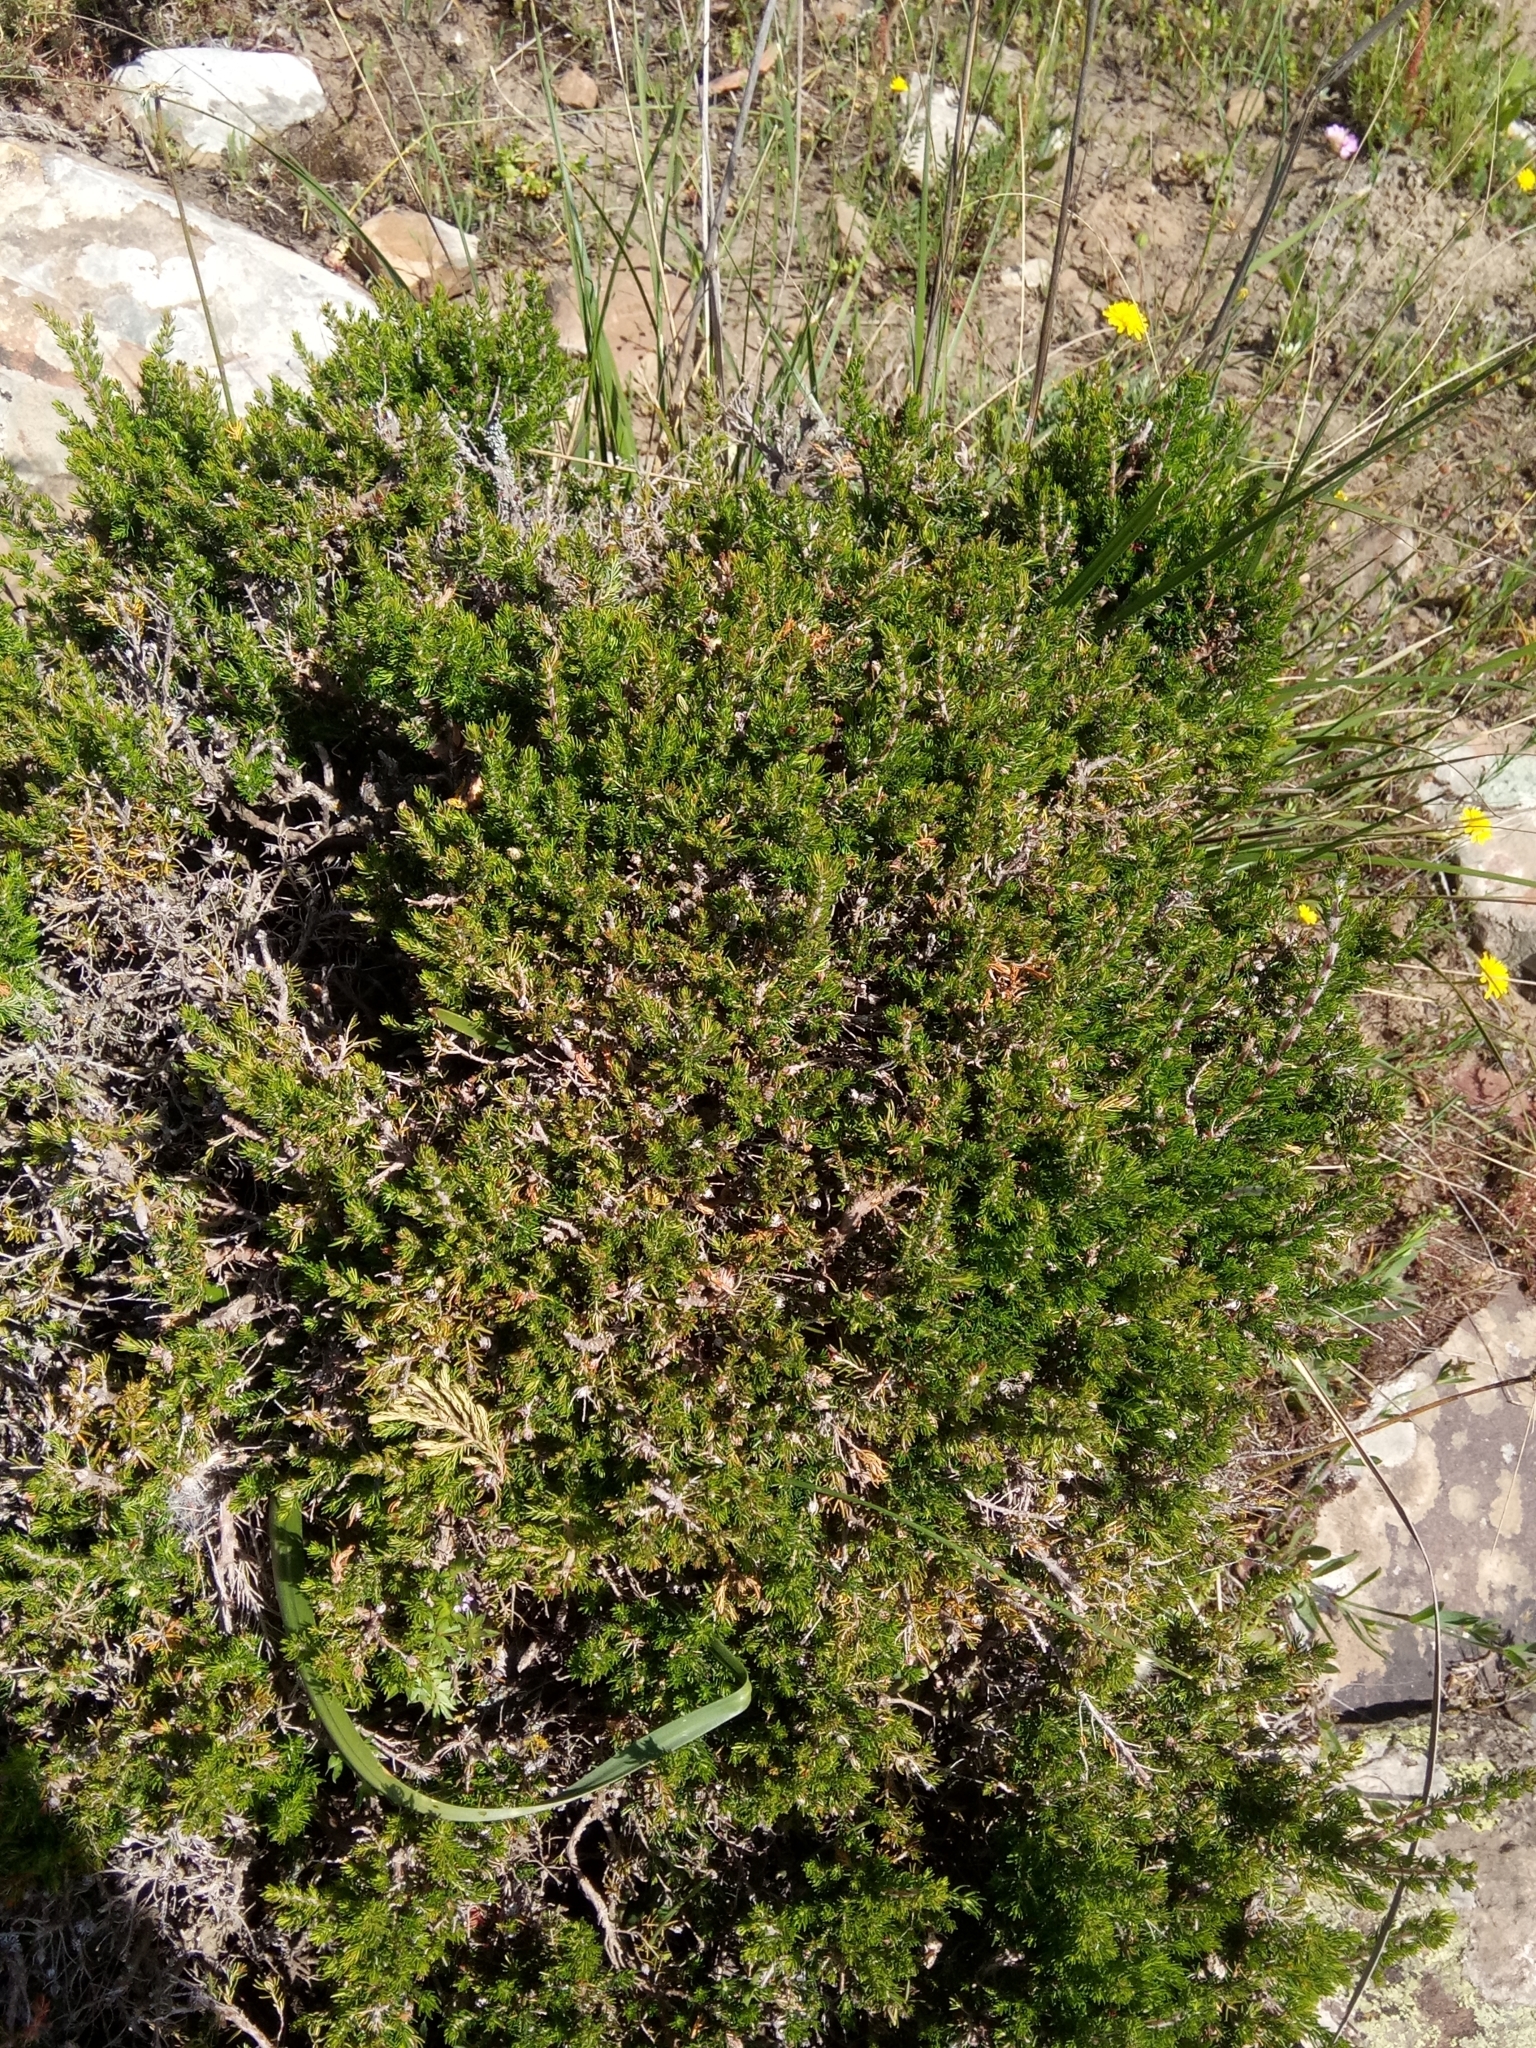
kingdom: Plantae
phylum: Tracheophyta
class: Magnoliopsida
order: Ericales
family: Ericaceae
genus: Erica
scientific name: Erica arborea
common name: Tree heath
